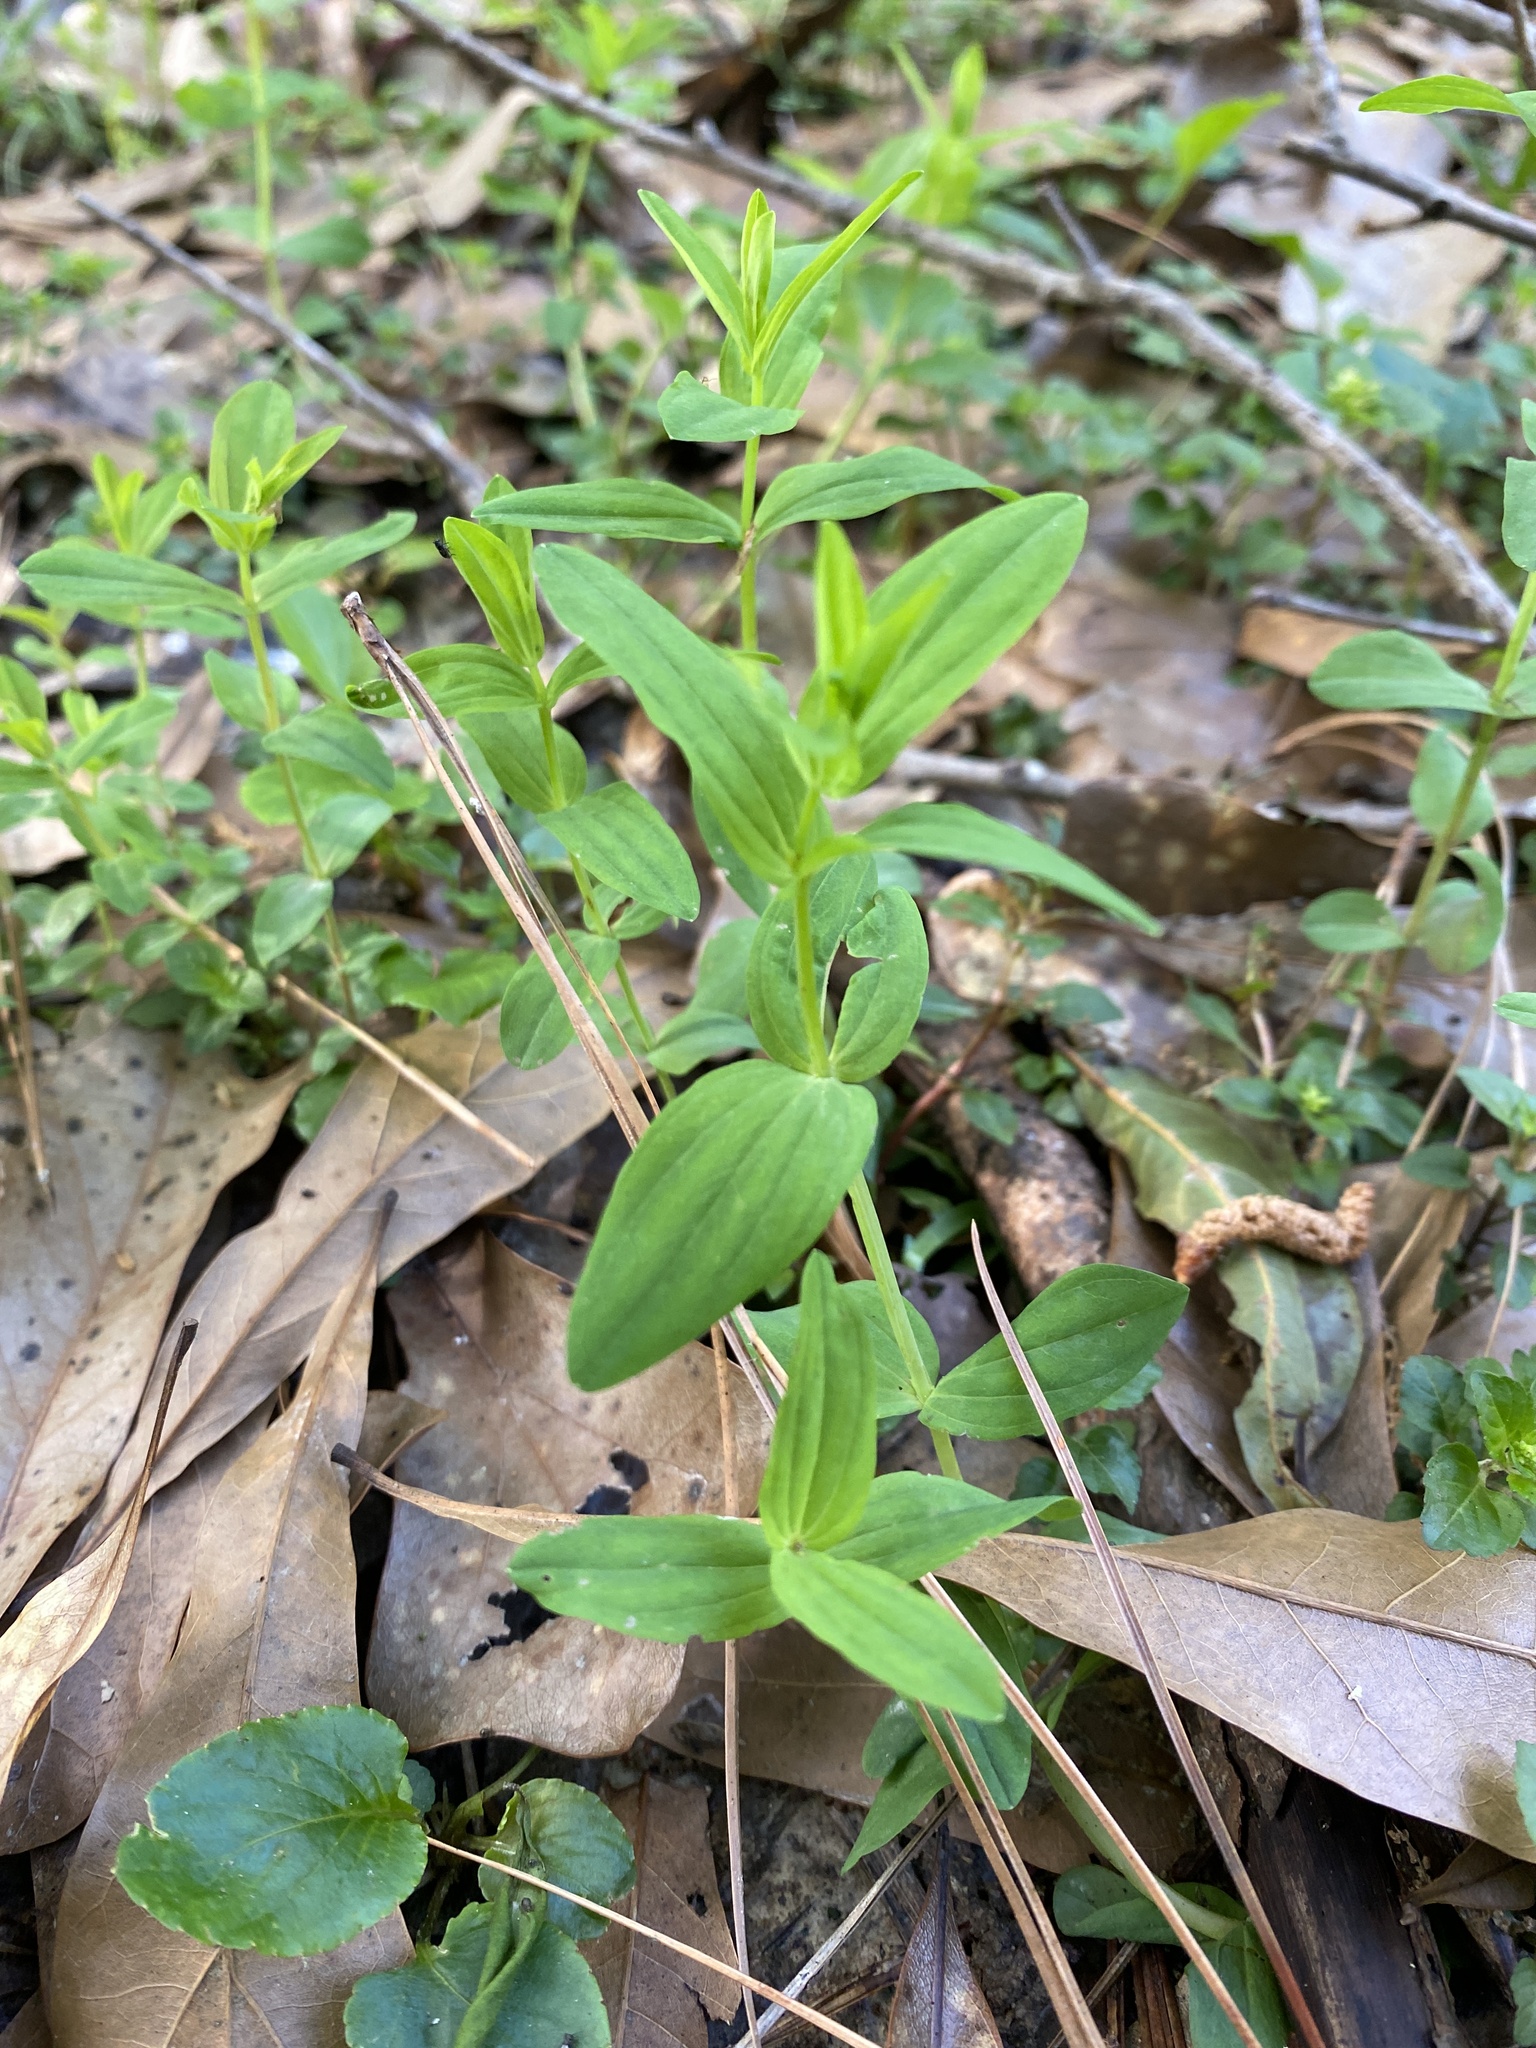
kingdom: Plantae
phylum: Tracheophyta
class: Magnoliopsida
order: Malpighiales
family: Hypericaceae
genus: Hypericum
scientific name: Hypericum mutilum
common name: Dwarf st. john's-wort
